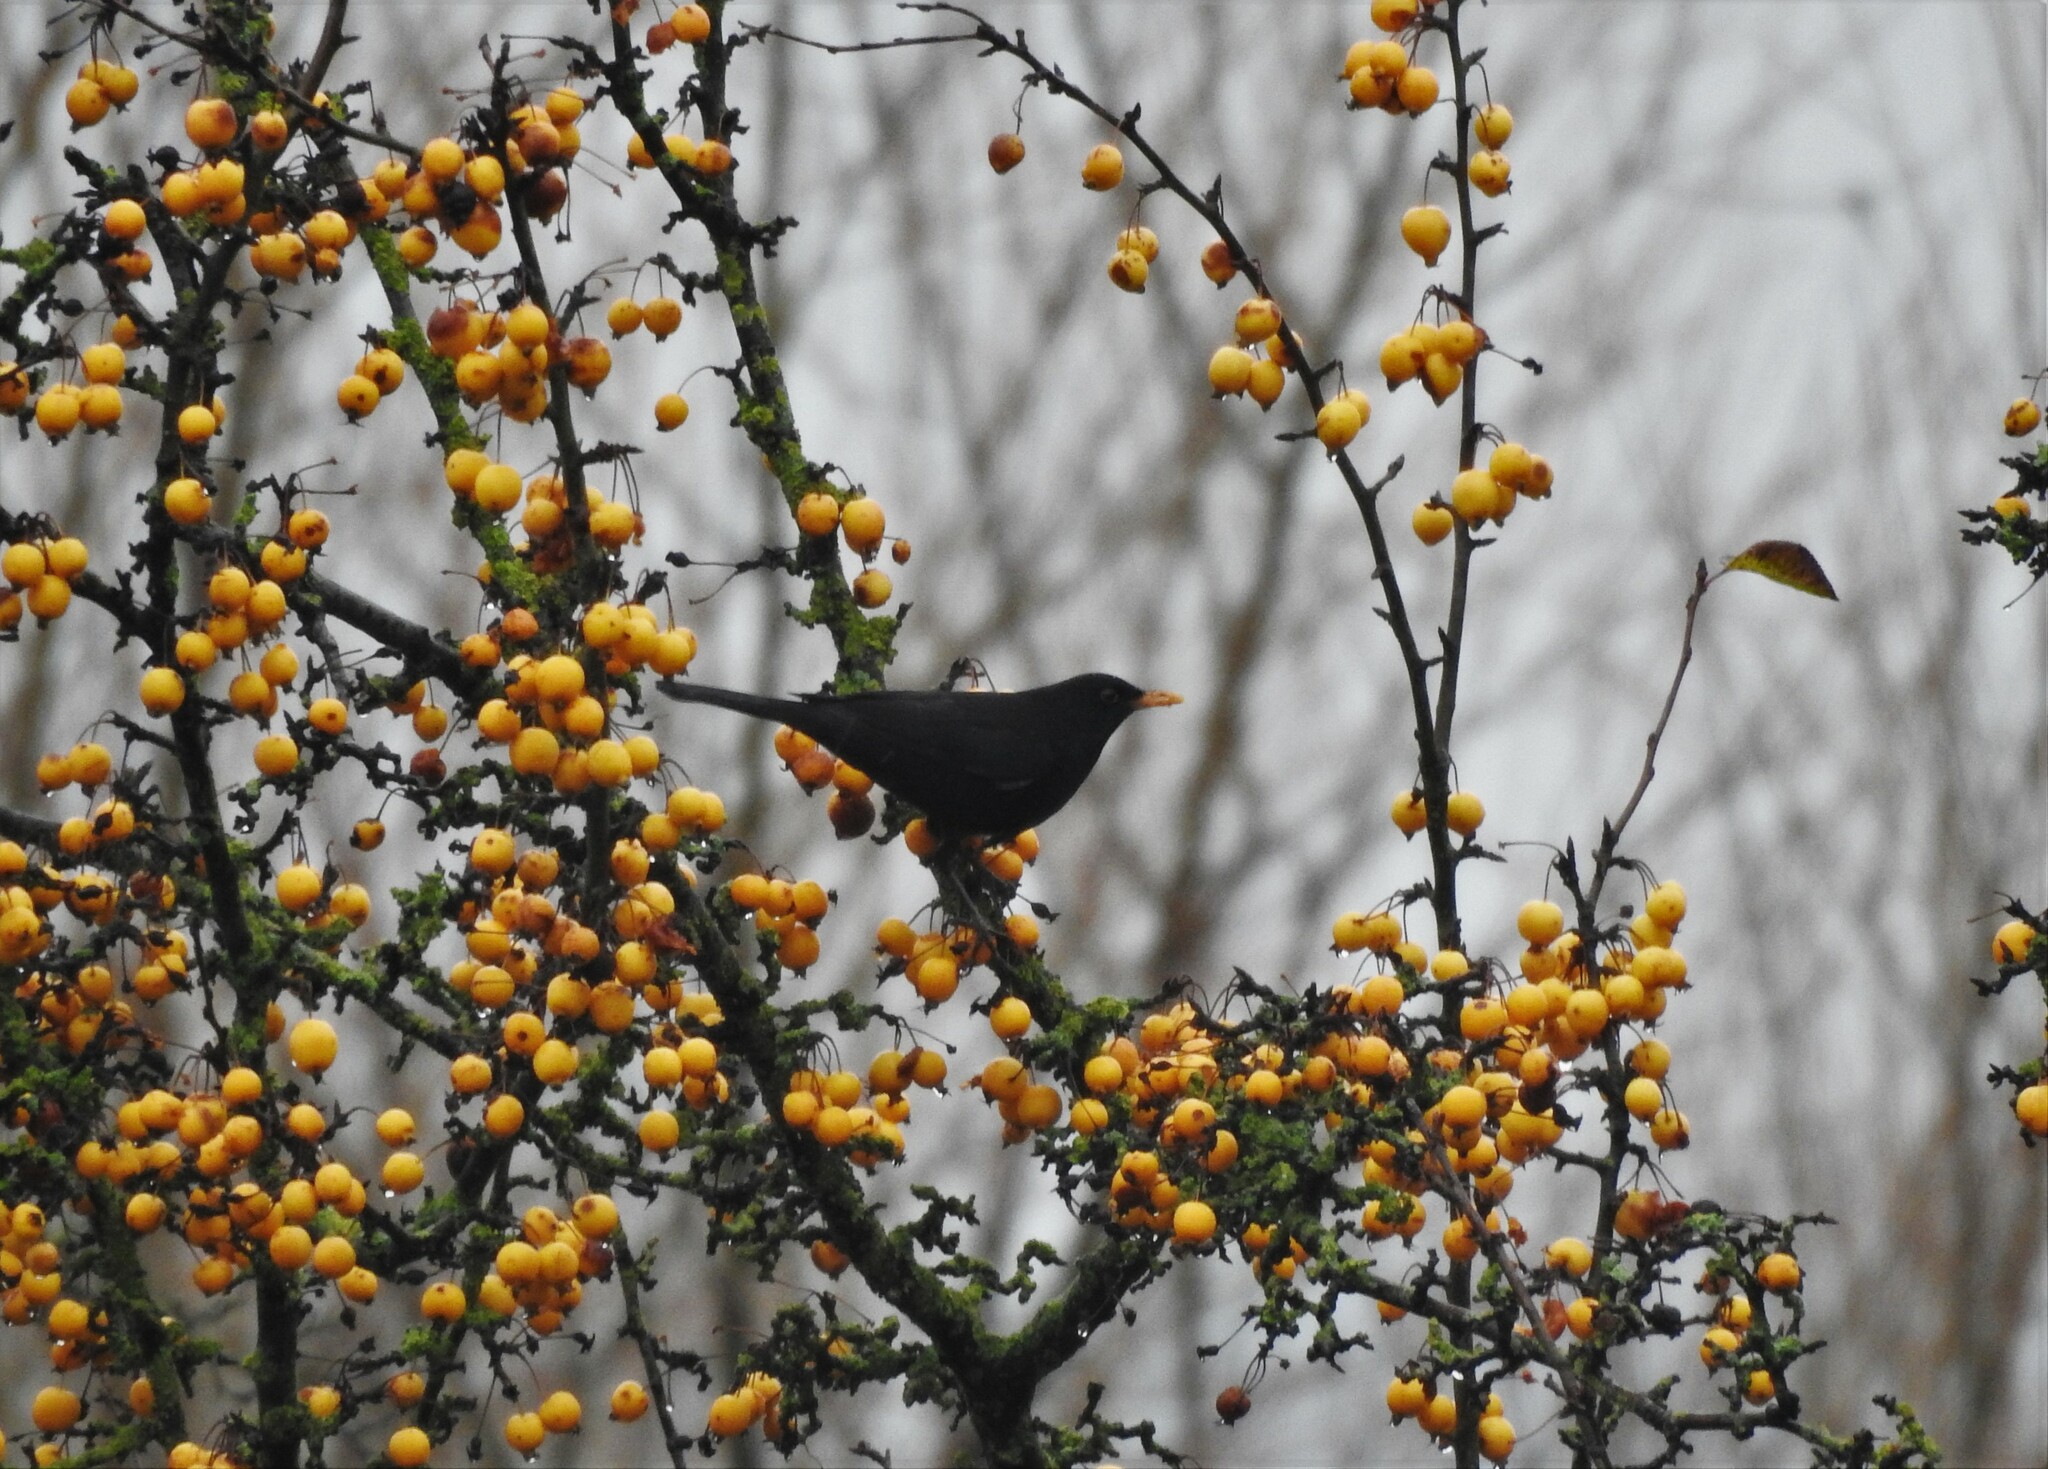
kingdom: Animalia
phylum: Chordata
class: Aves
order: Passeriformes
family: Turdidae
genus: Turdus
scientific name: Turdus merula
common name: Common blackbird
